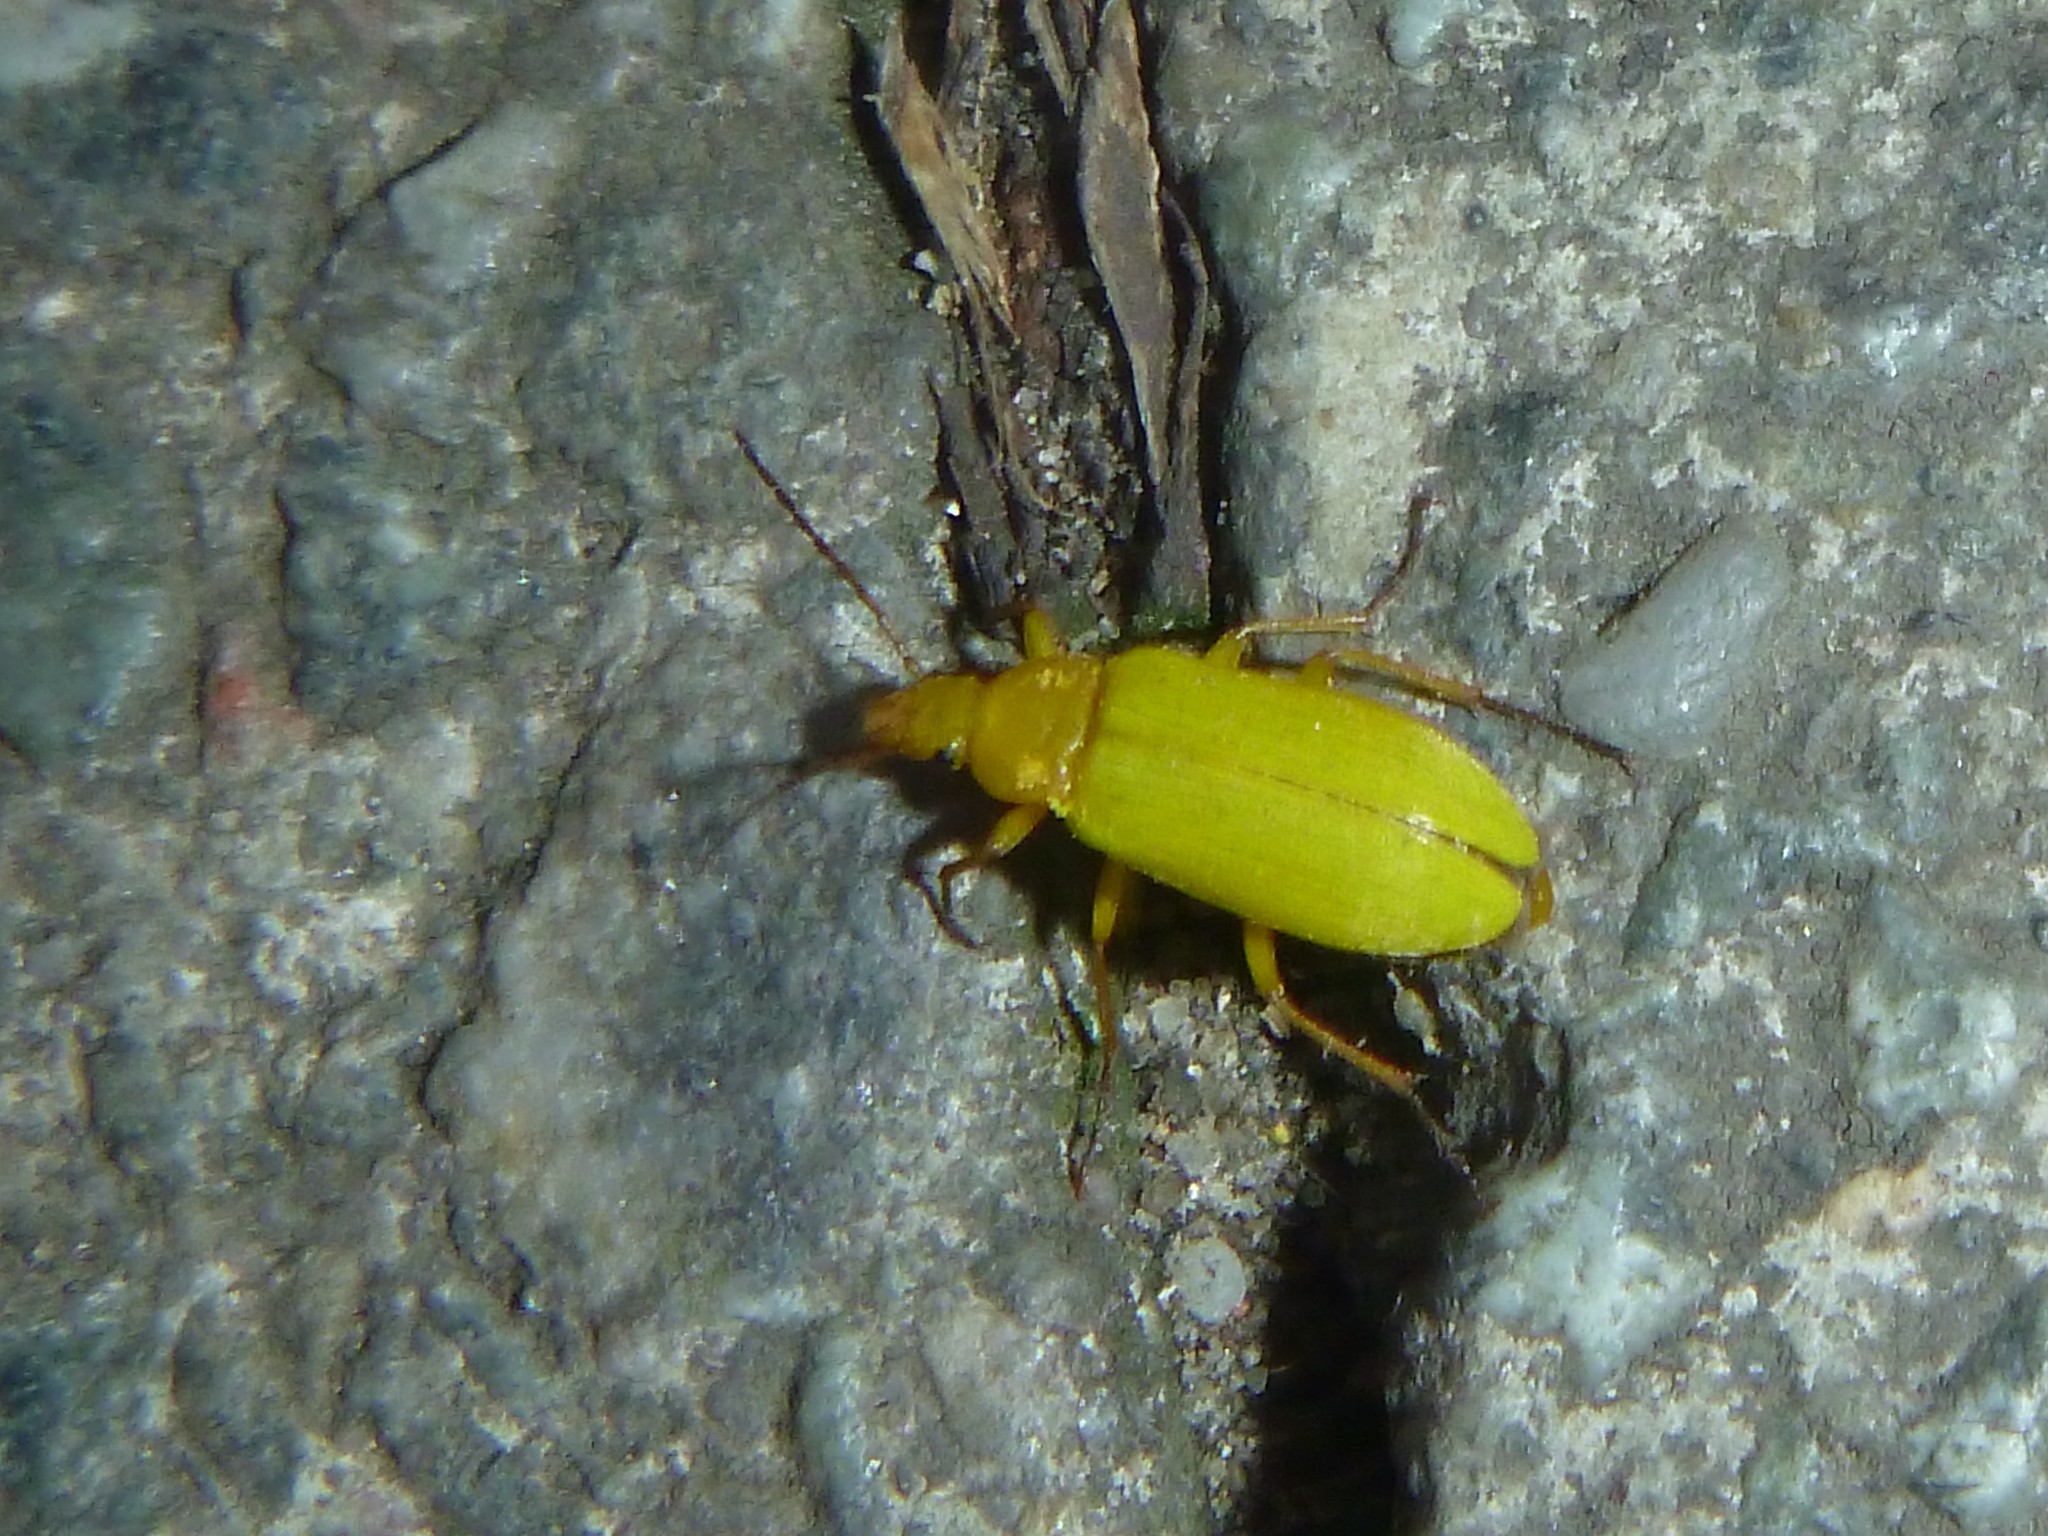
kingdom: Animalia
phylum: Arthropoda
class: Insecta
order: Coleoptera
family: Tenebrionidae
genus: Cteniopus
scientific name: Cteniopus sulphureus
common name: Sulphur beetle
